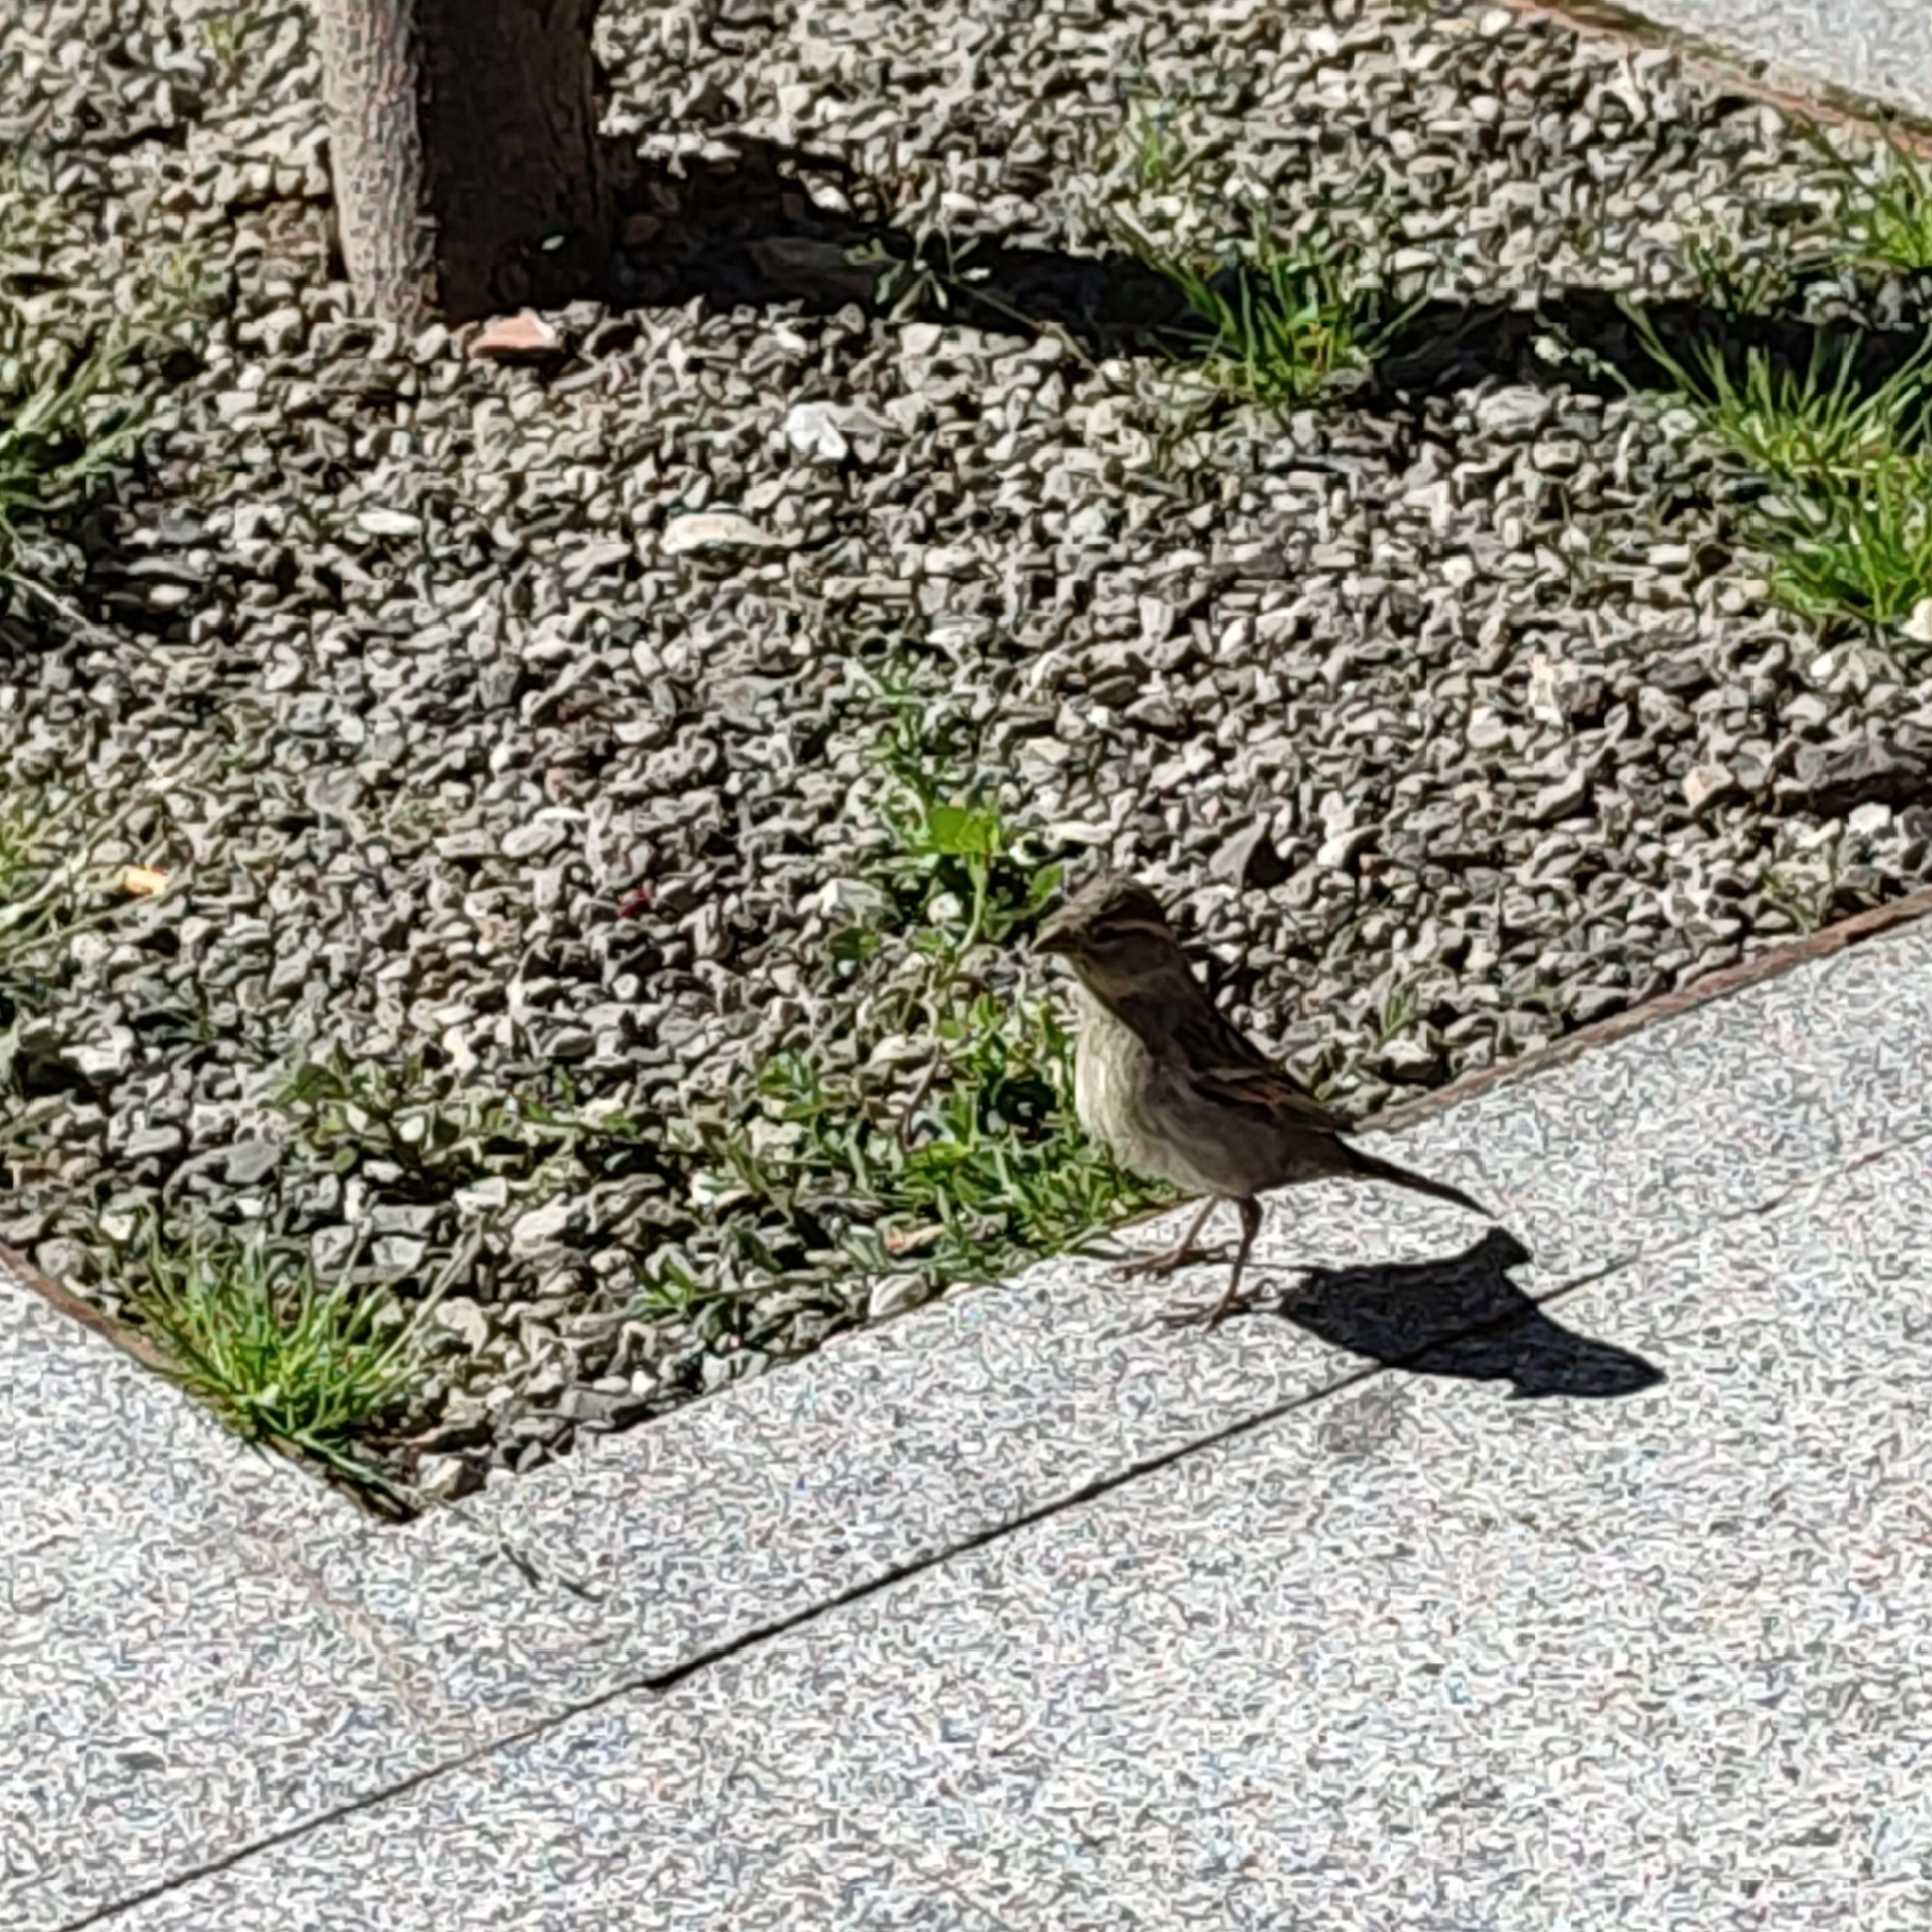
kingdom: Animalia
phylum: Chordata
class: Aves
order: Passeriformes
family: Passeridae
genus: Passer
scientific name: Passer domesticus
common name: House sparrow
